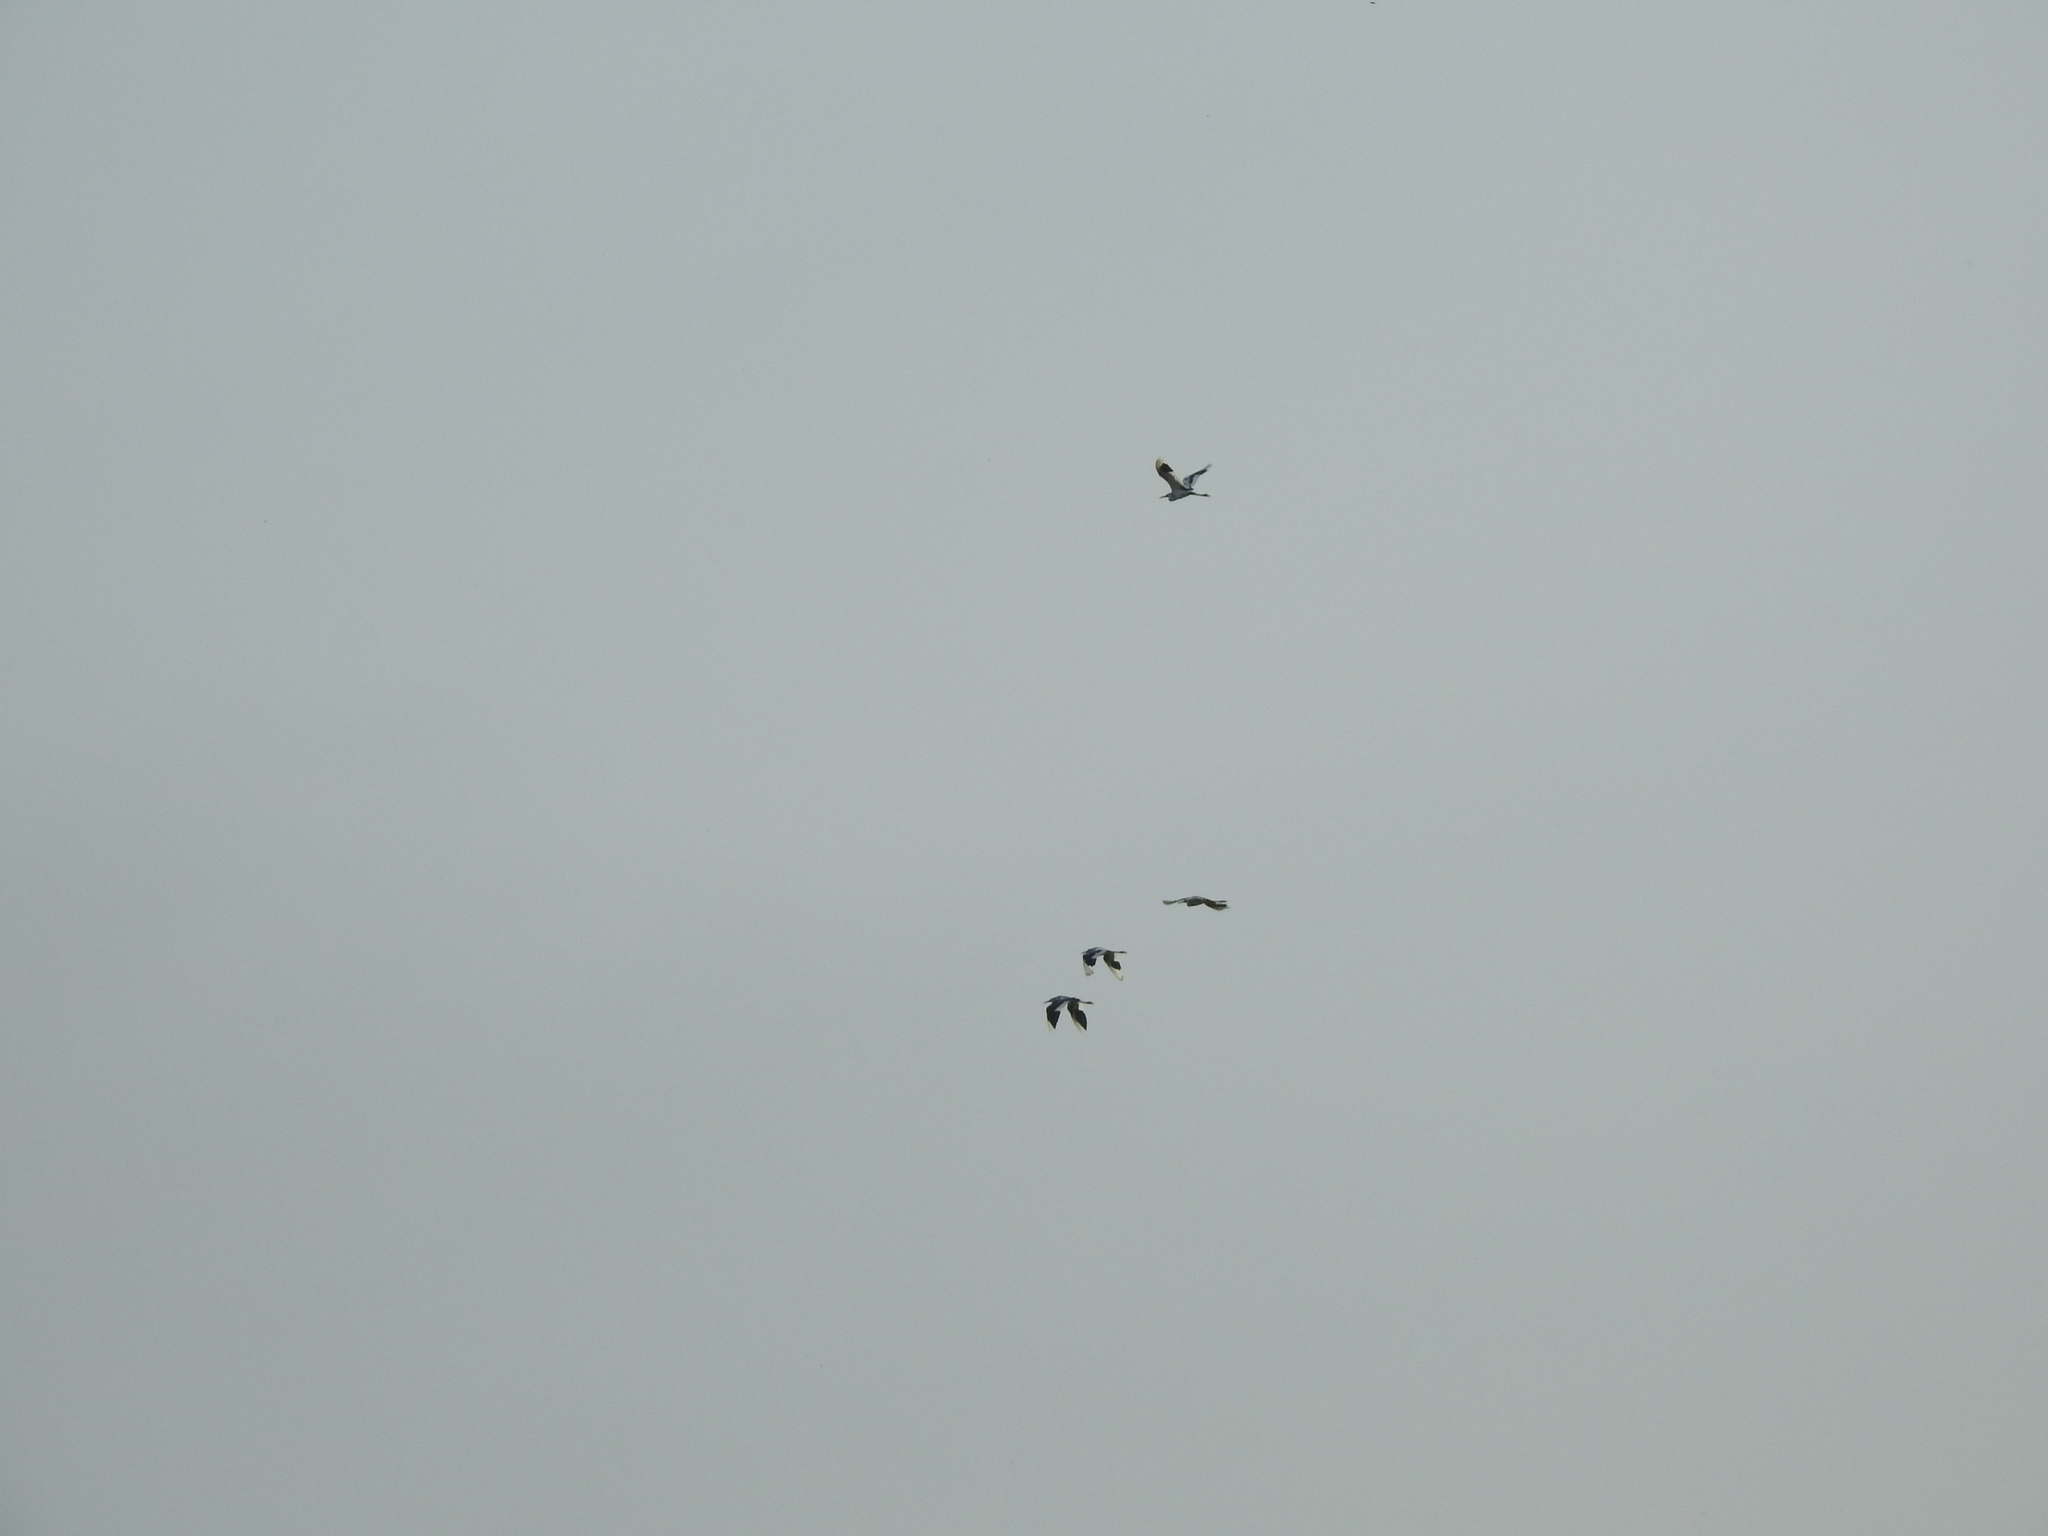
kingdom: Animalia
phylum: Chordata
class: Aves
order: Pelecaniformes
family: Ardeidae
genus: Egretta
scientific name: Egretta caerulea
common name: Little blue heron
